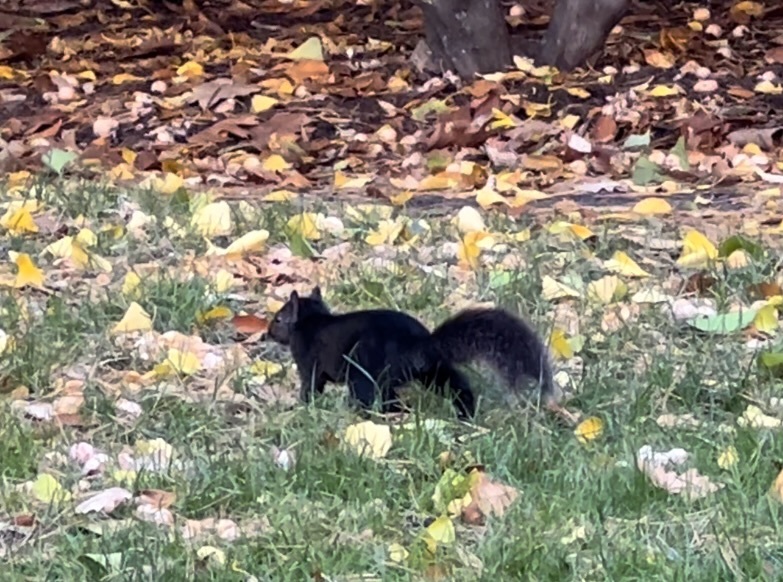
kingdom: Animalia
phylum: Chordata
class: Mammalia
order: Rodentia
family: Sciuridae
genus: Sciurus
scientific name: Sciurus carolinensis
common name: Eastern gray squirrel
